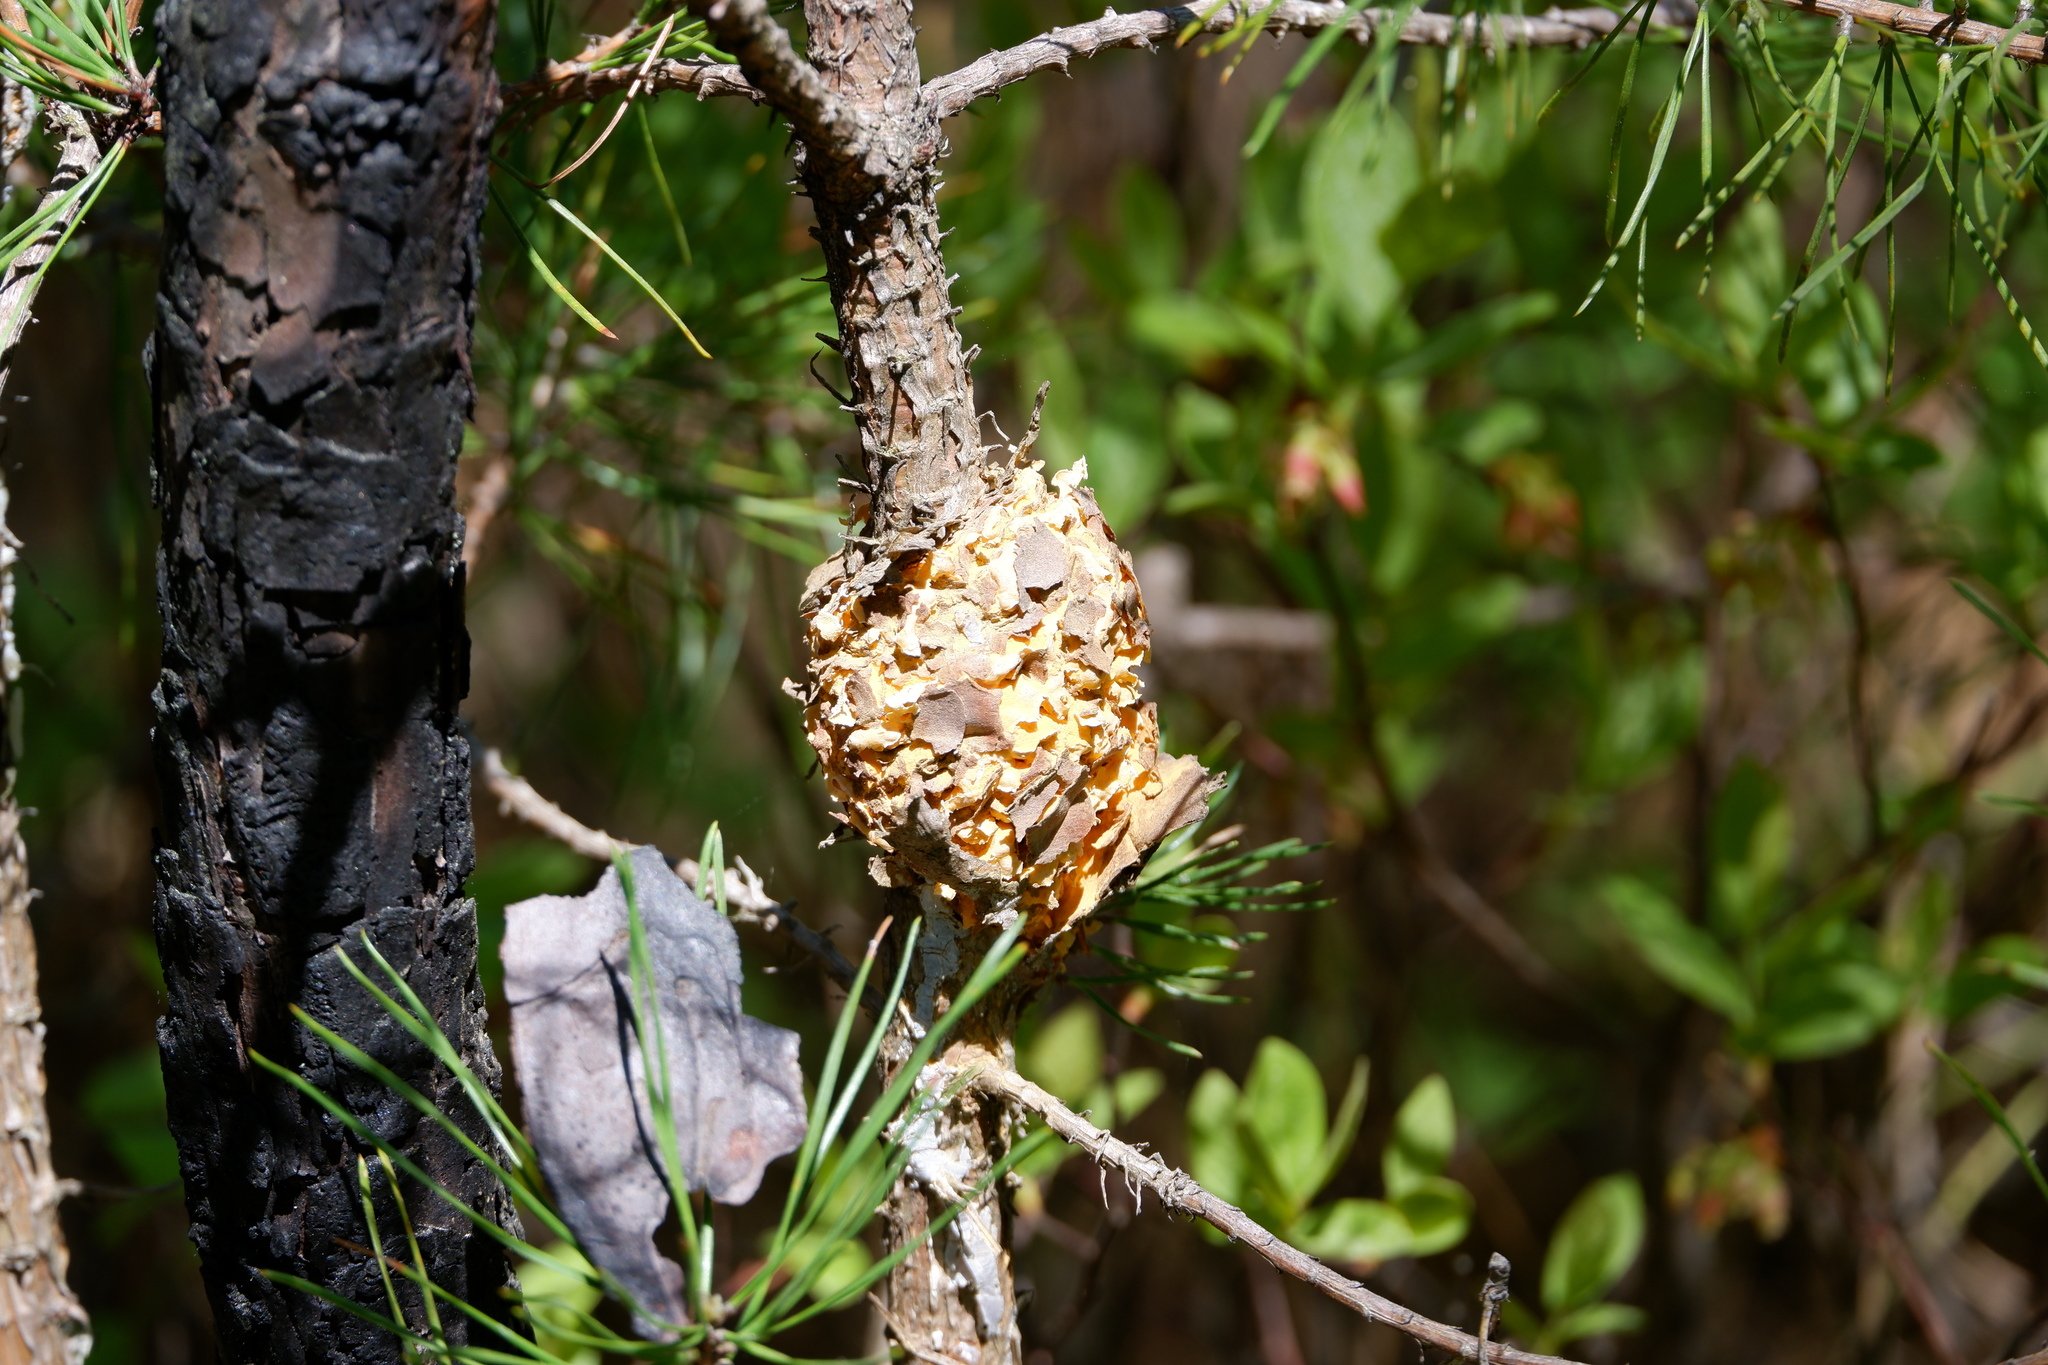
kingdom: Fungi
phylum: Basidiomycota
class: Pucciniomycetes
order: Pucciniales
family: Cronartiaceae
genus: Cronartium
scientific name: Cronartium quercuum
